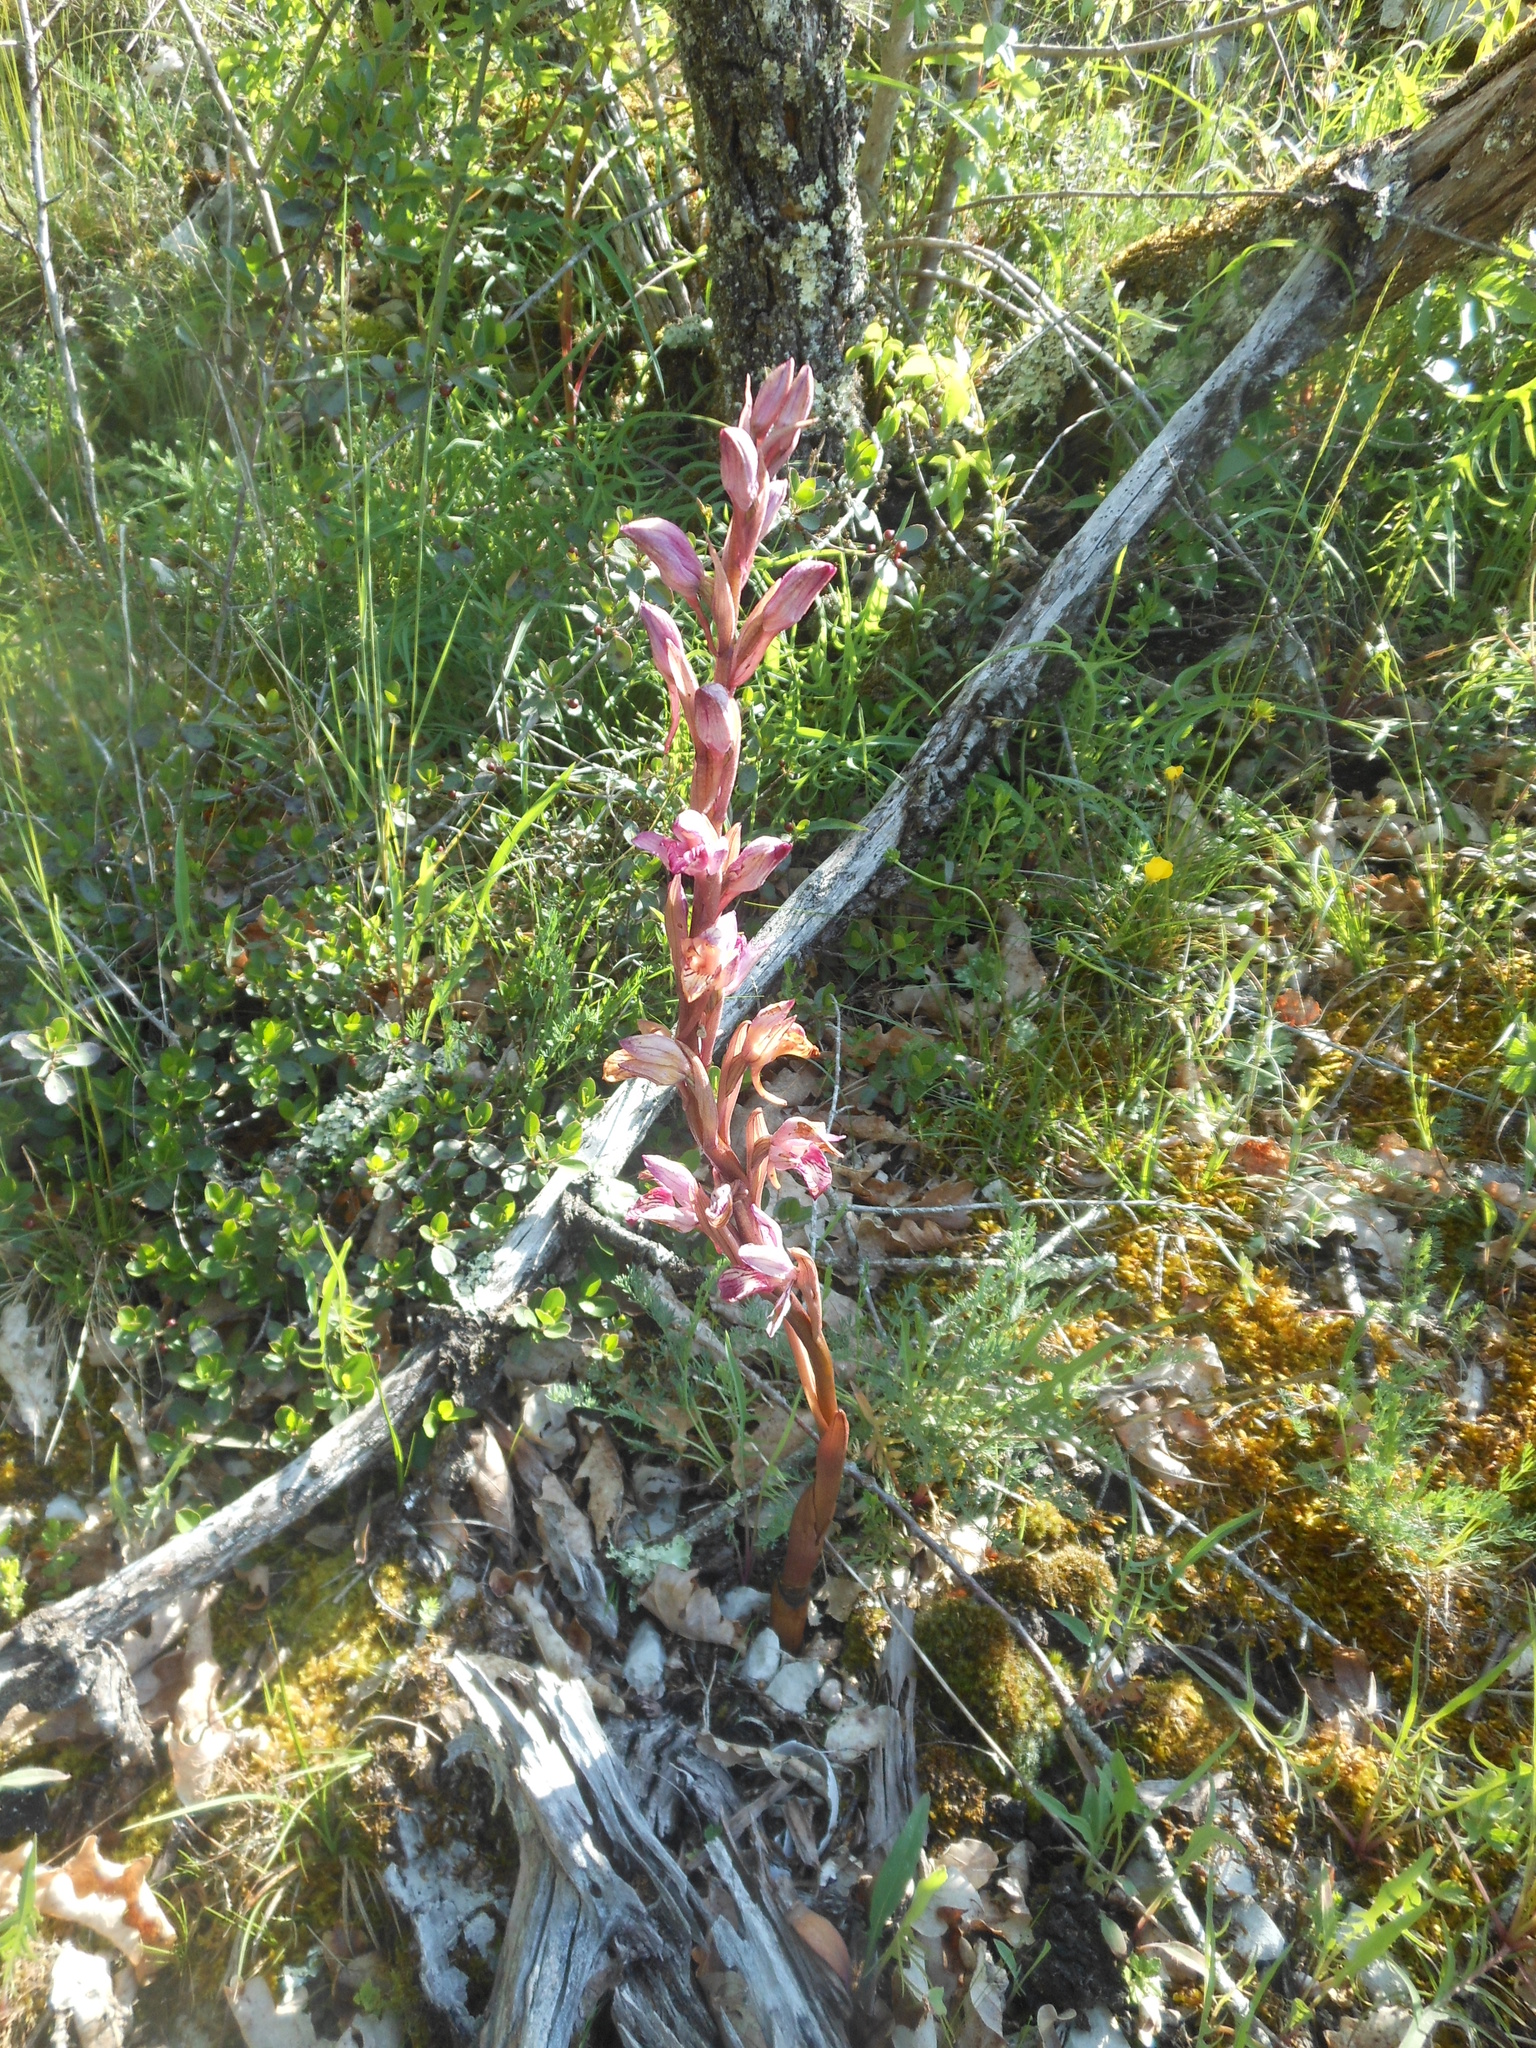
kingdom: Plantae
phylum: Tracheophyta
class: Liliopsida
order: Asparagales
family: Orchidaceae
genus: Limodorum
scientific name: Limodorum abortivum
